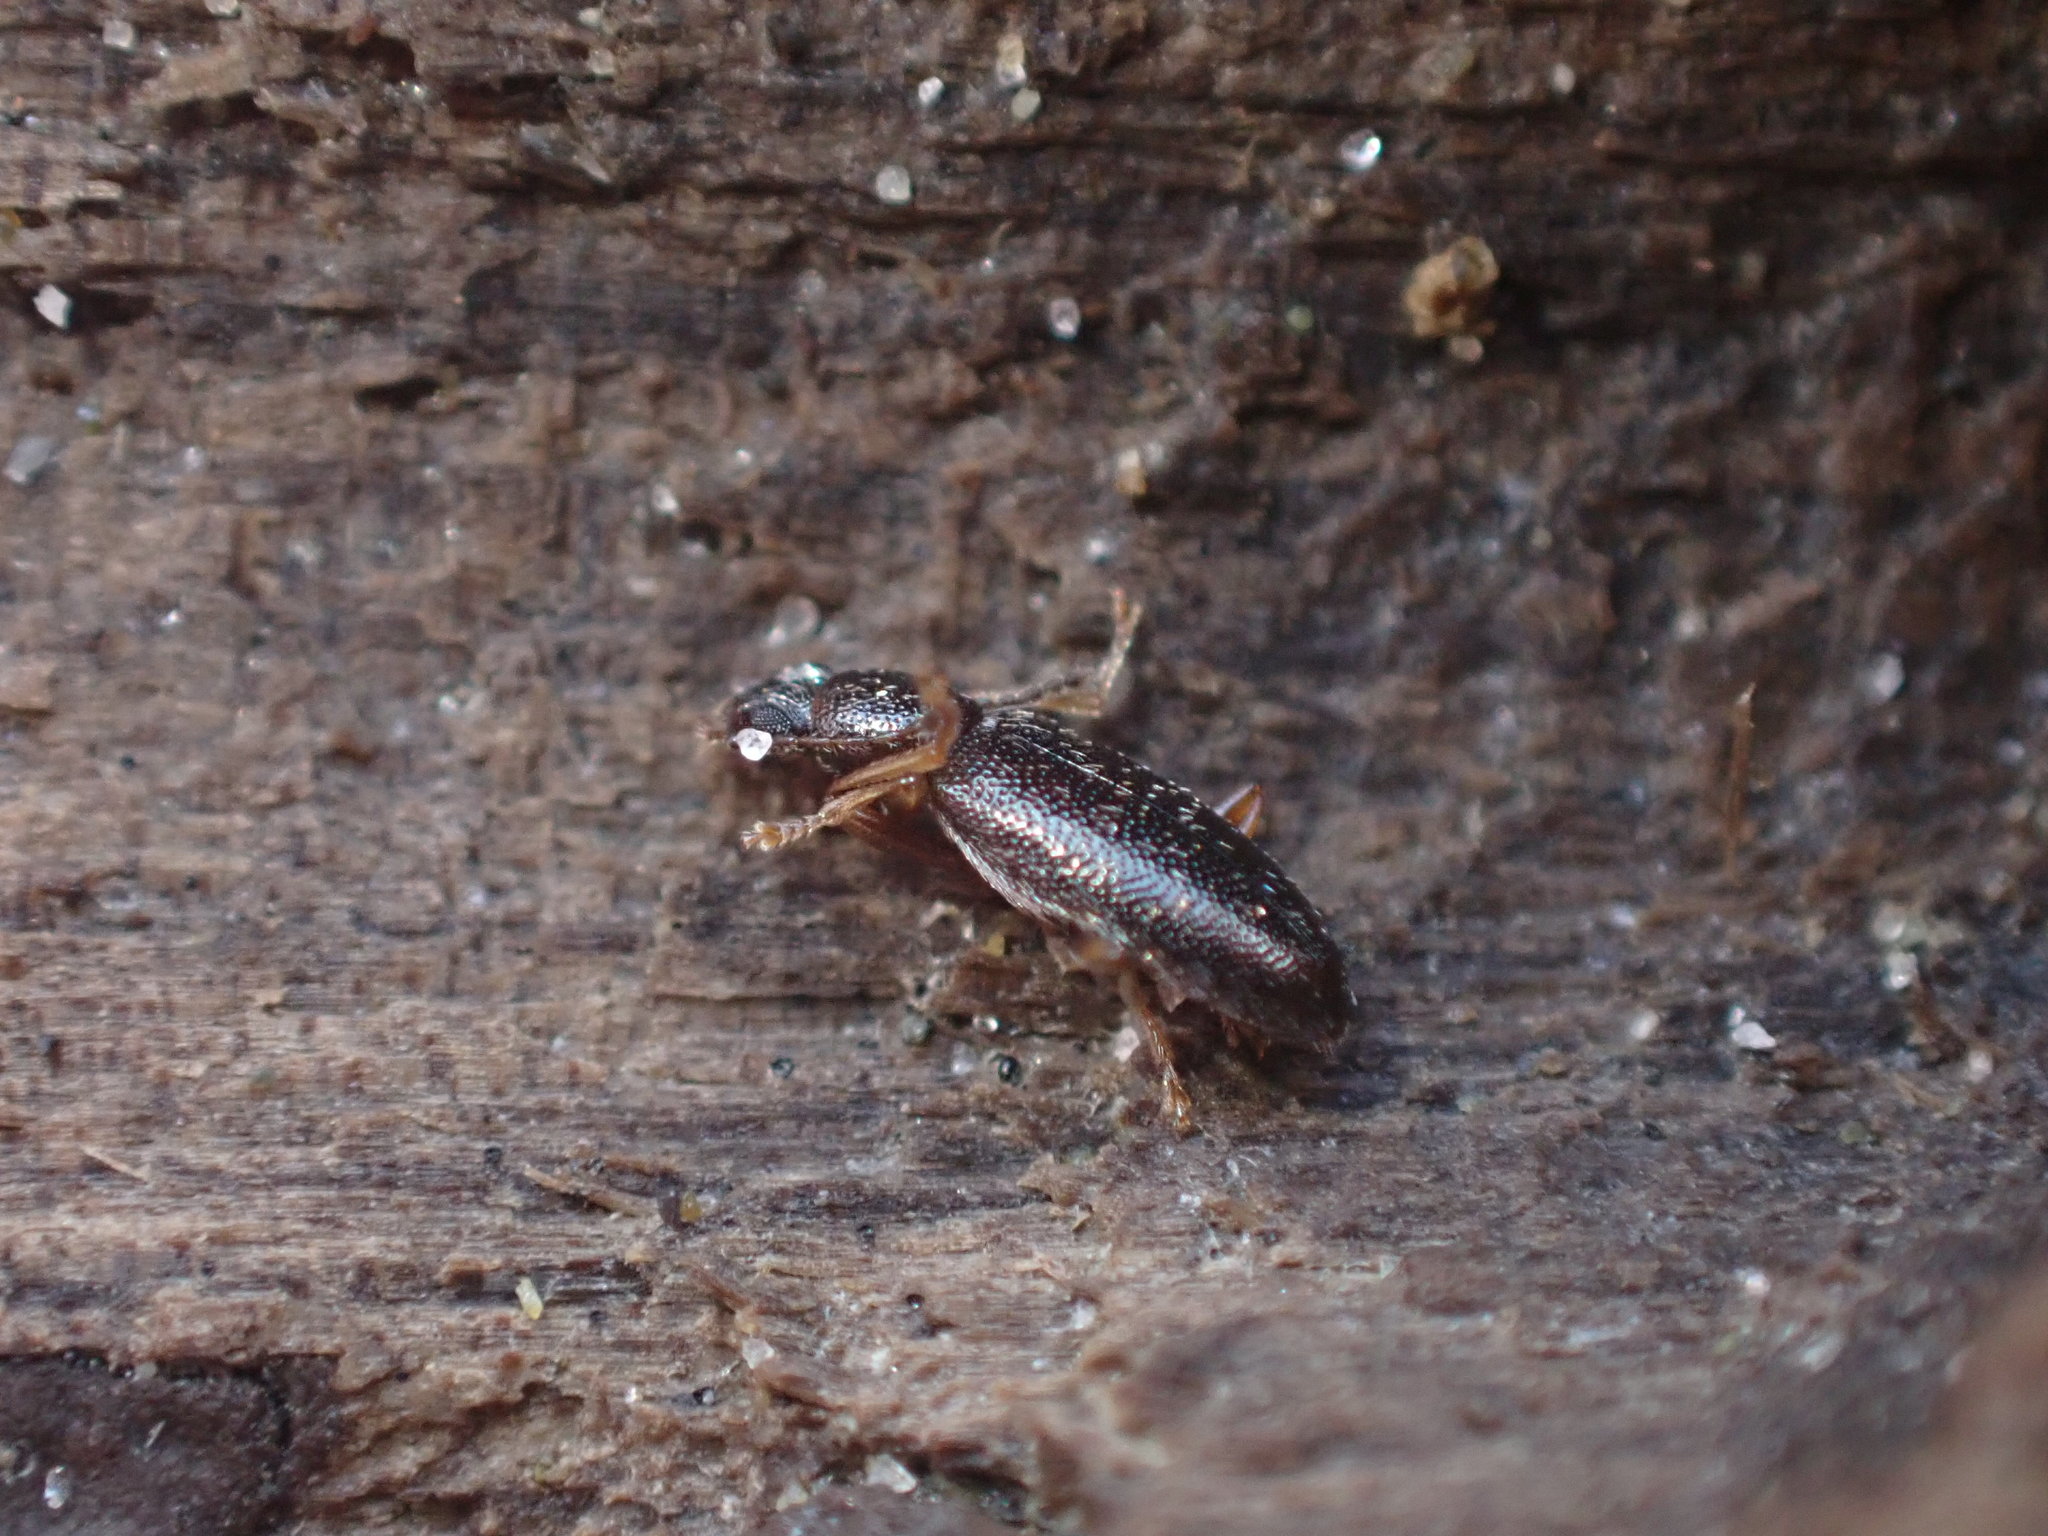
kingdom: Animalia
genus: Lagrioda
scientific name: Lagrioda brounii
